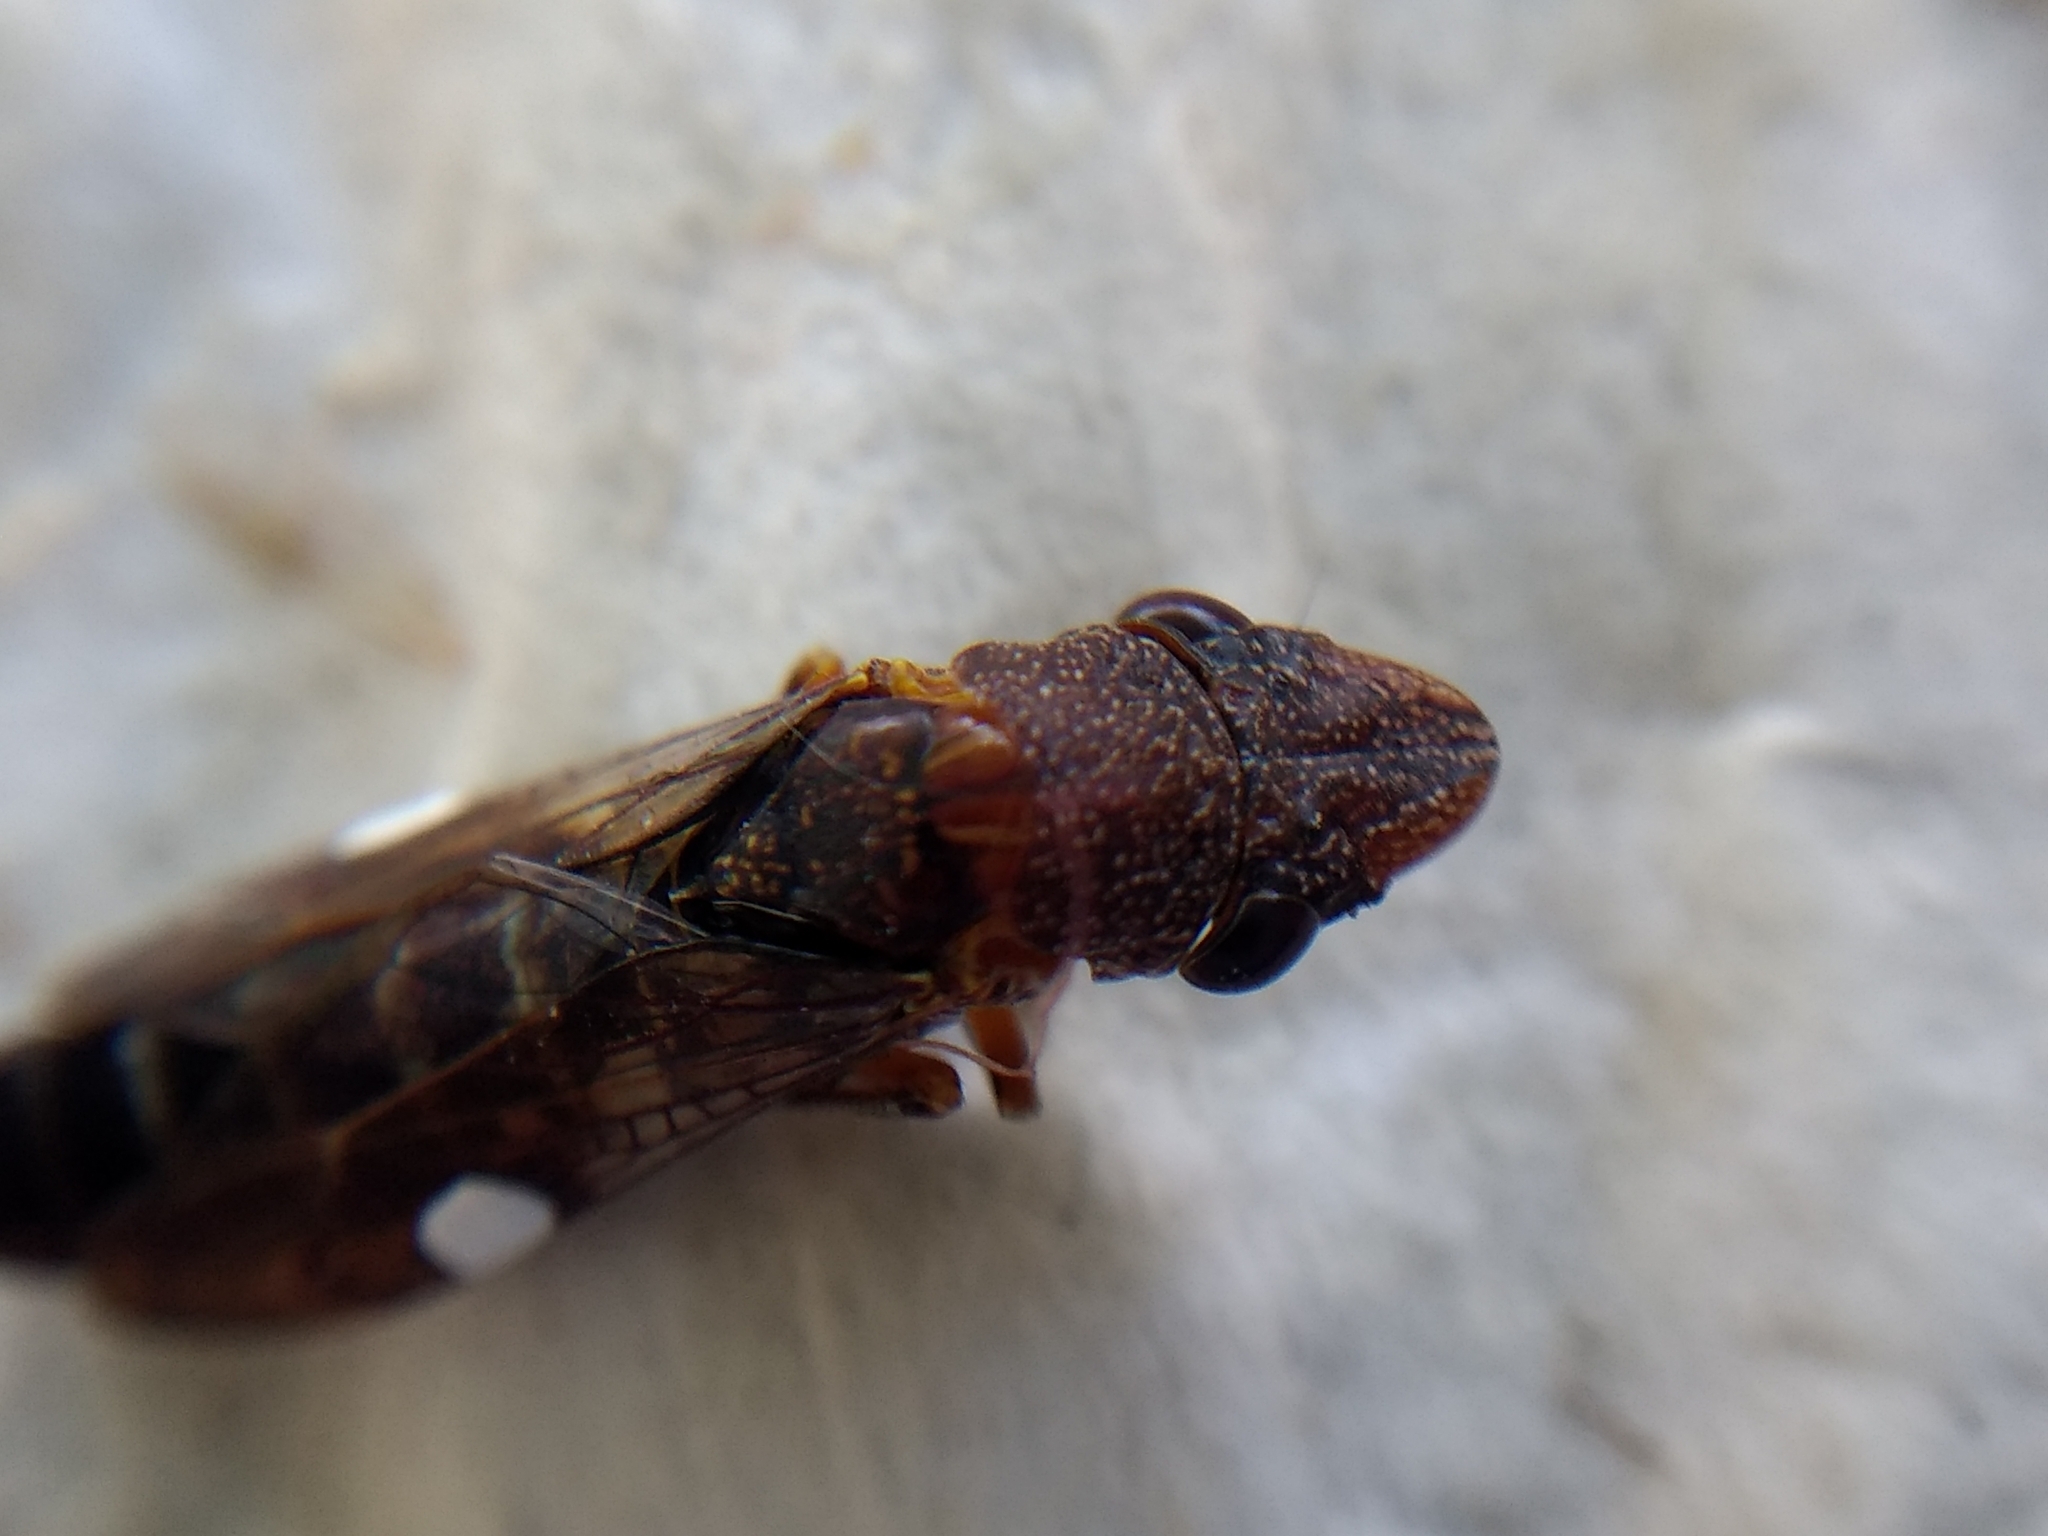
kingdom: Animalia
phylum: Arthropoda
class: Insecta
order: Hemiptera
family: Cicadellidae
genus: Homalodisca
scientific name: Homalodisca vitripennis
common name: Glassy-winged sharpshooter
